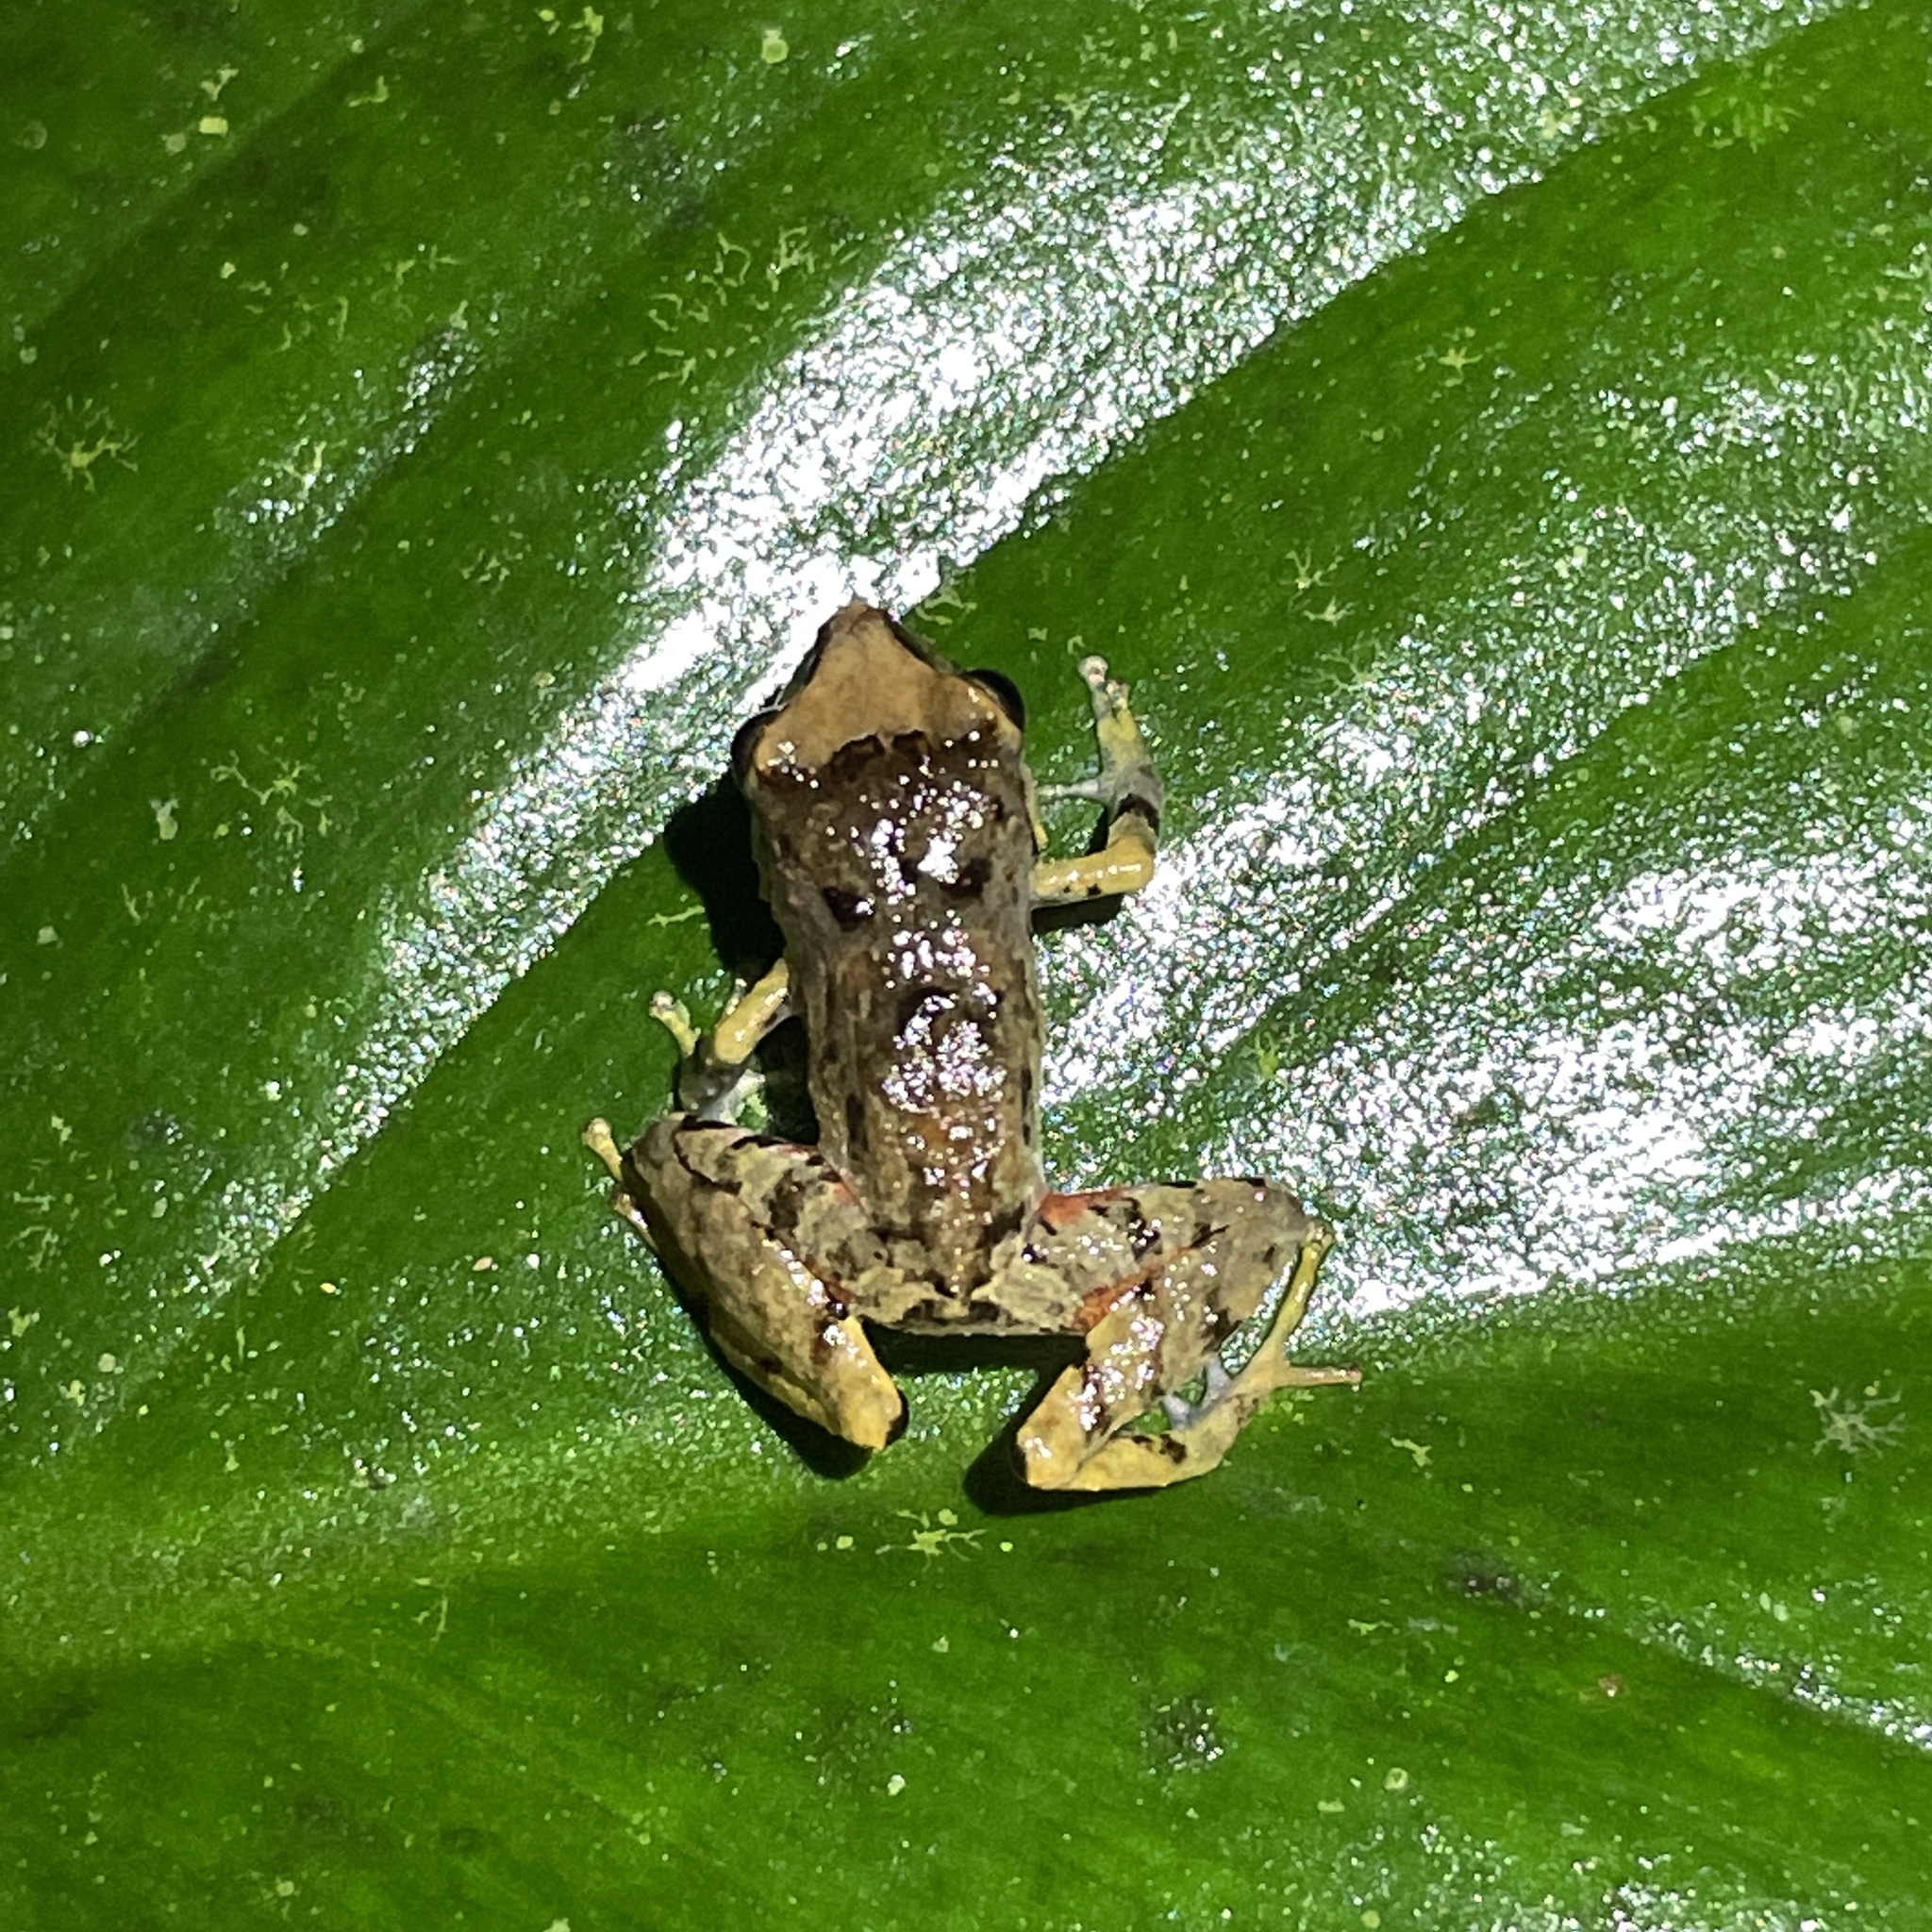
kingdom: Animalia
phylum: Chordata
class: Amphibia
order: Anura
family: Craugastoridae
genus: Pristimantis
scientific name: Pristimantis urichi
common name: Lesser antilles robber frog
